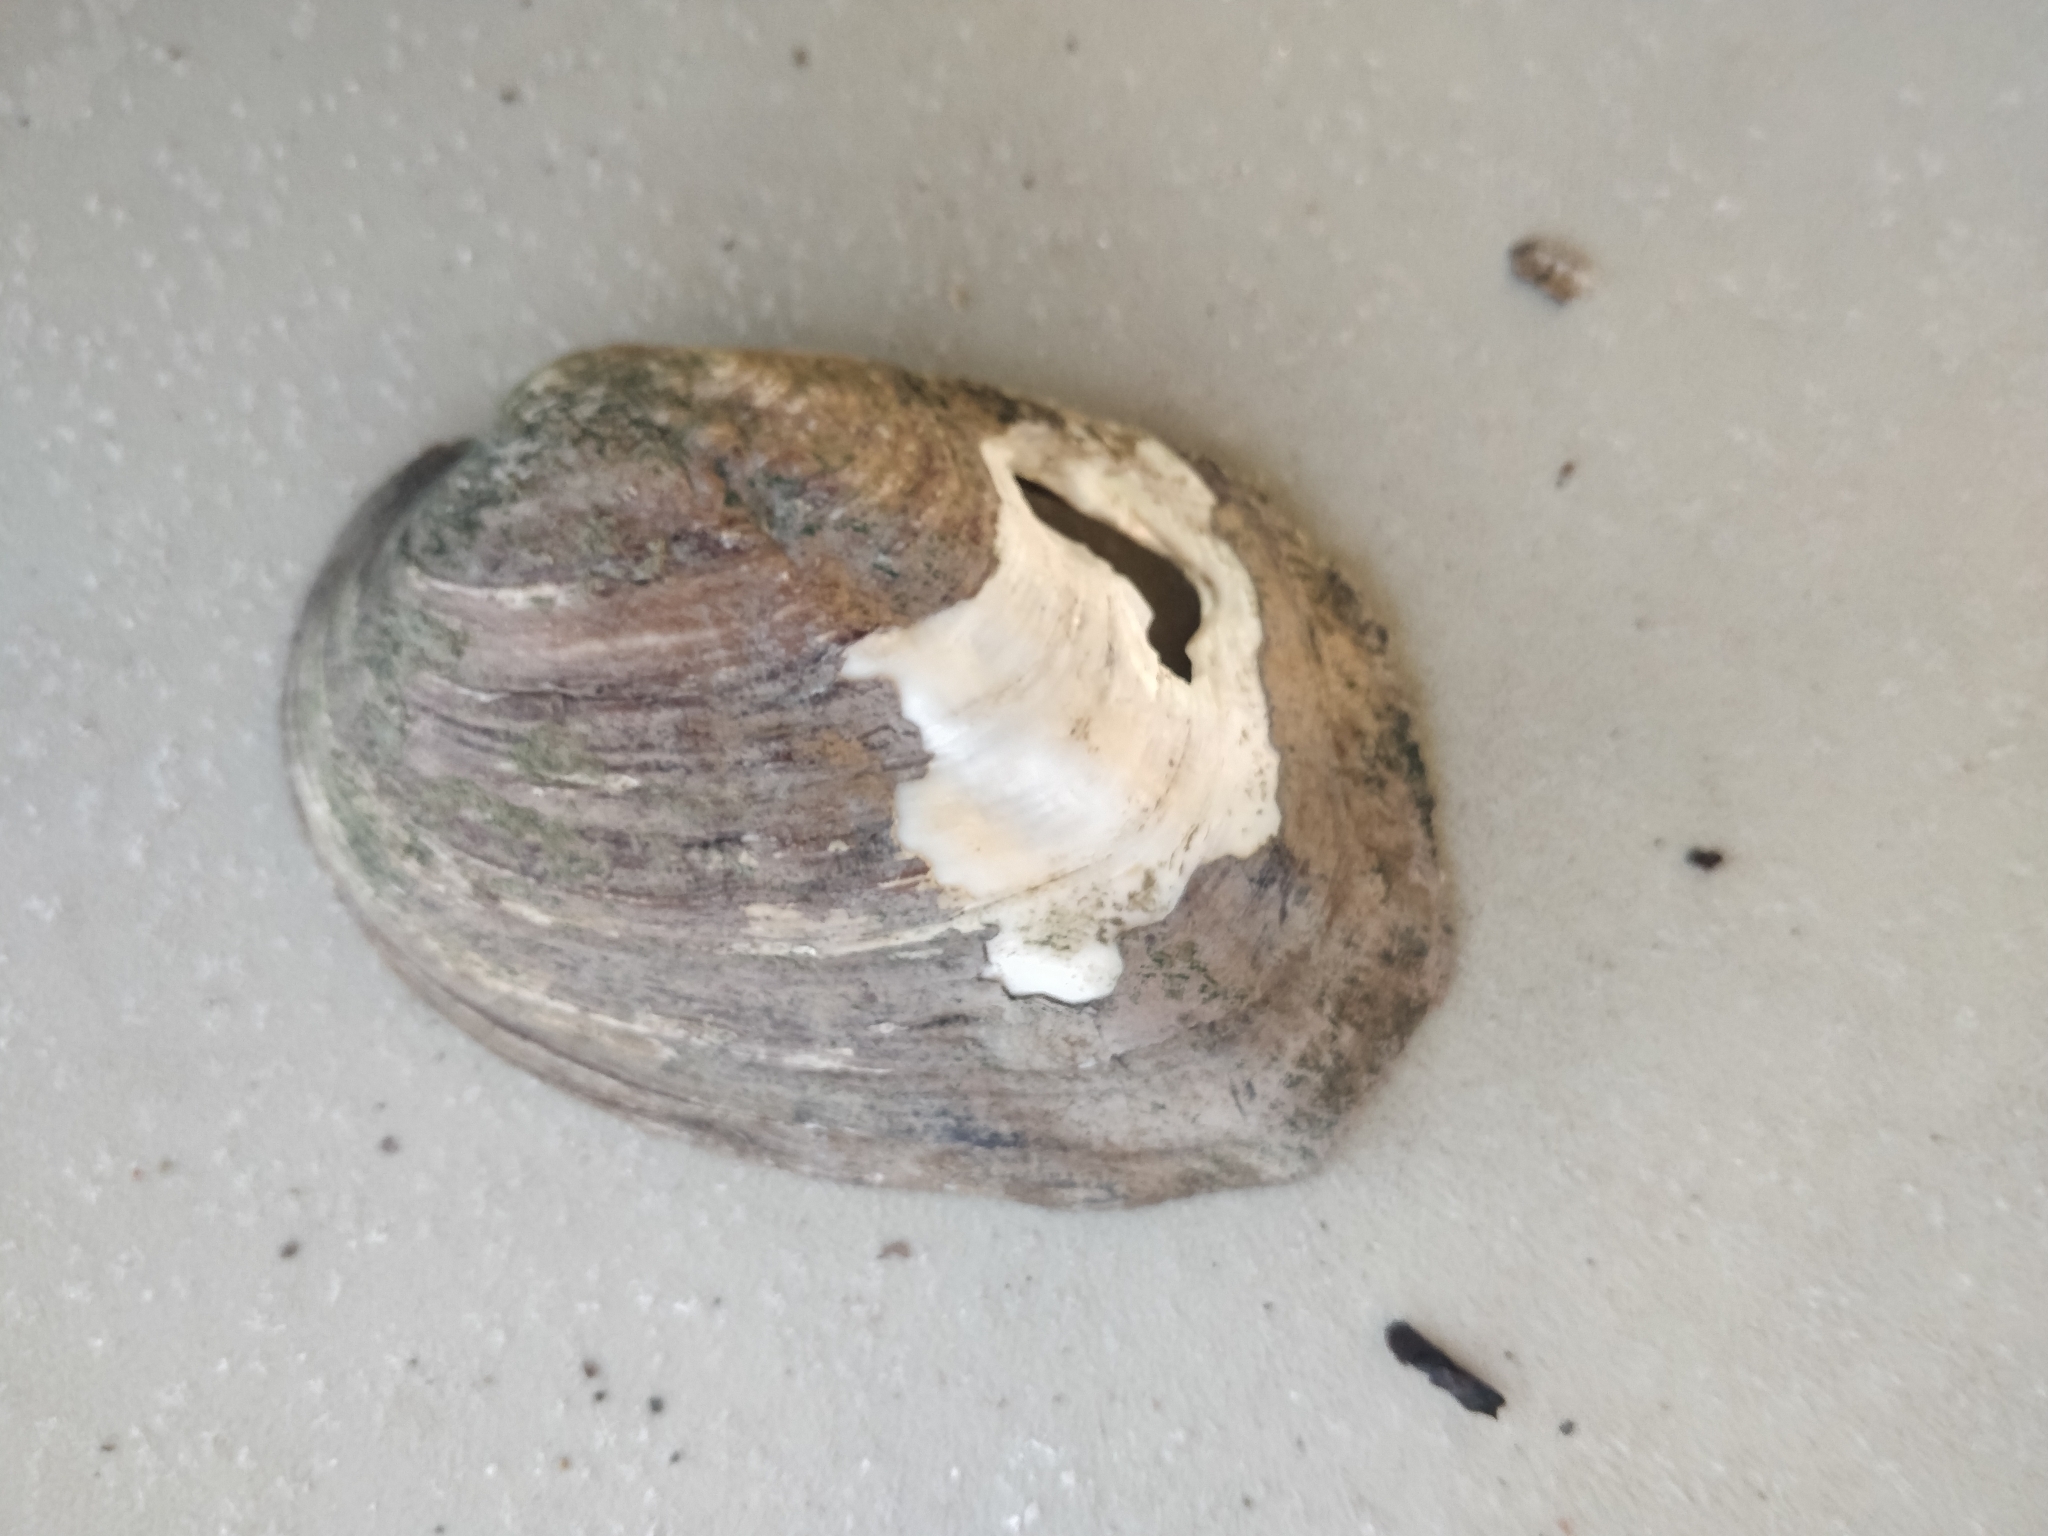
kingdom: Animalia
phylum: Mollusca
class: Bivalvia
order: Unionida
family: Unionidae
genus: Amblema
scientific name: Amblema plicata
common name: Threeridge
